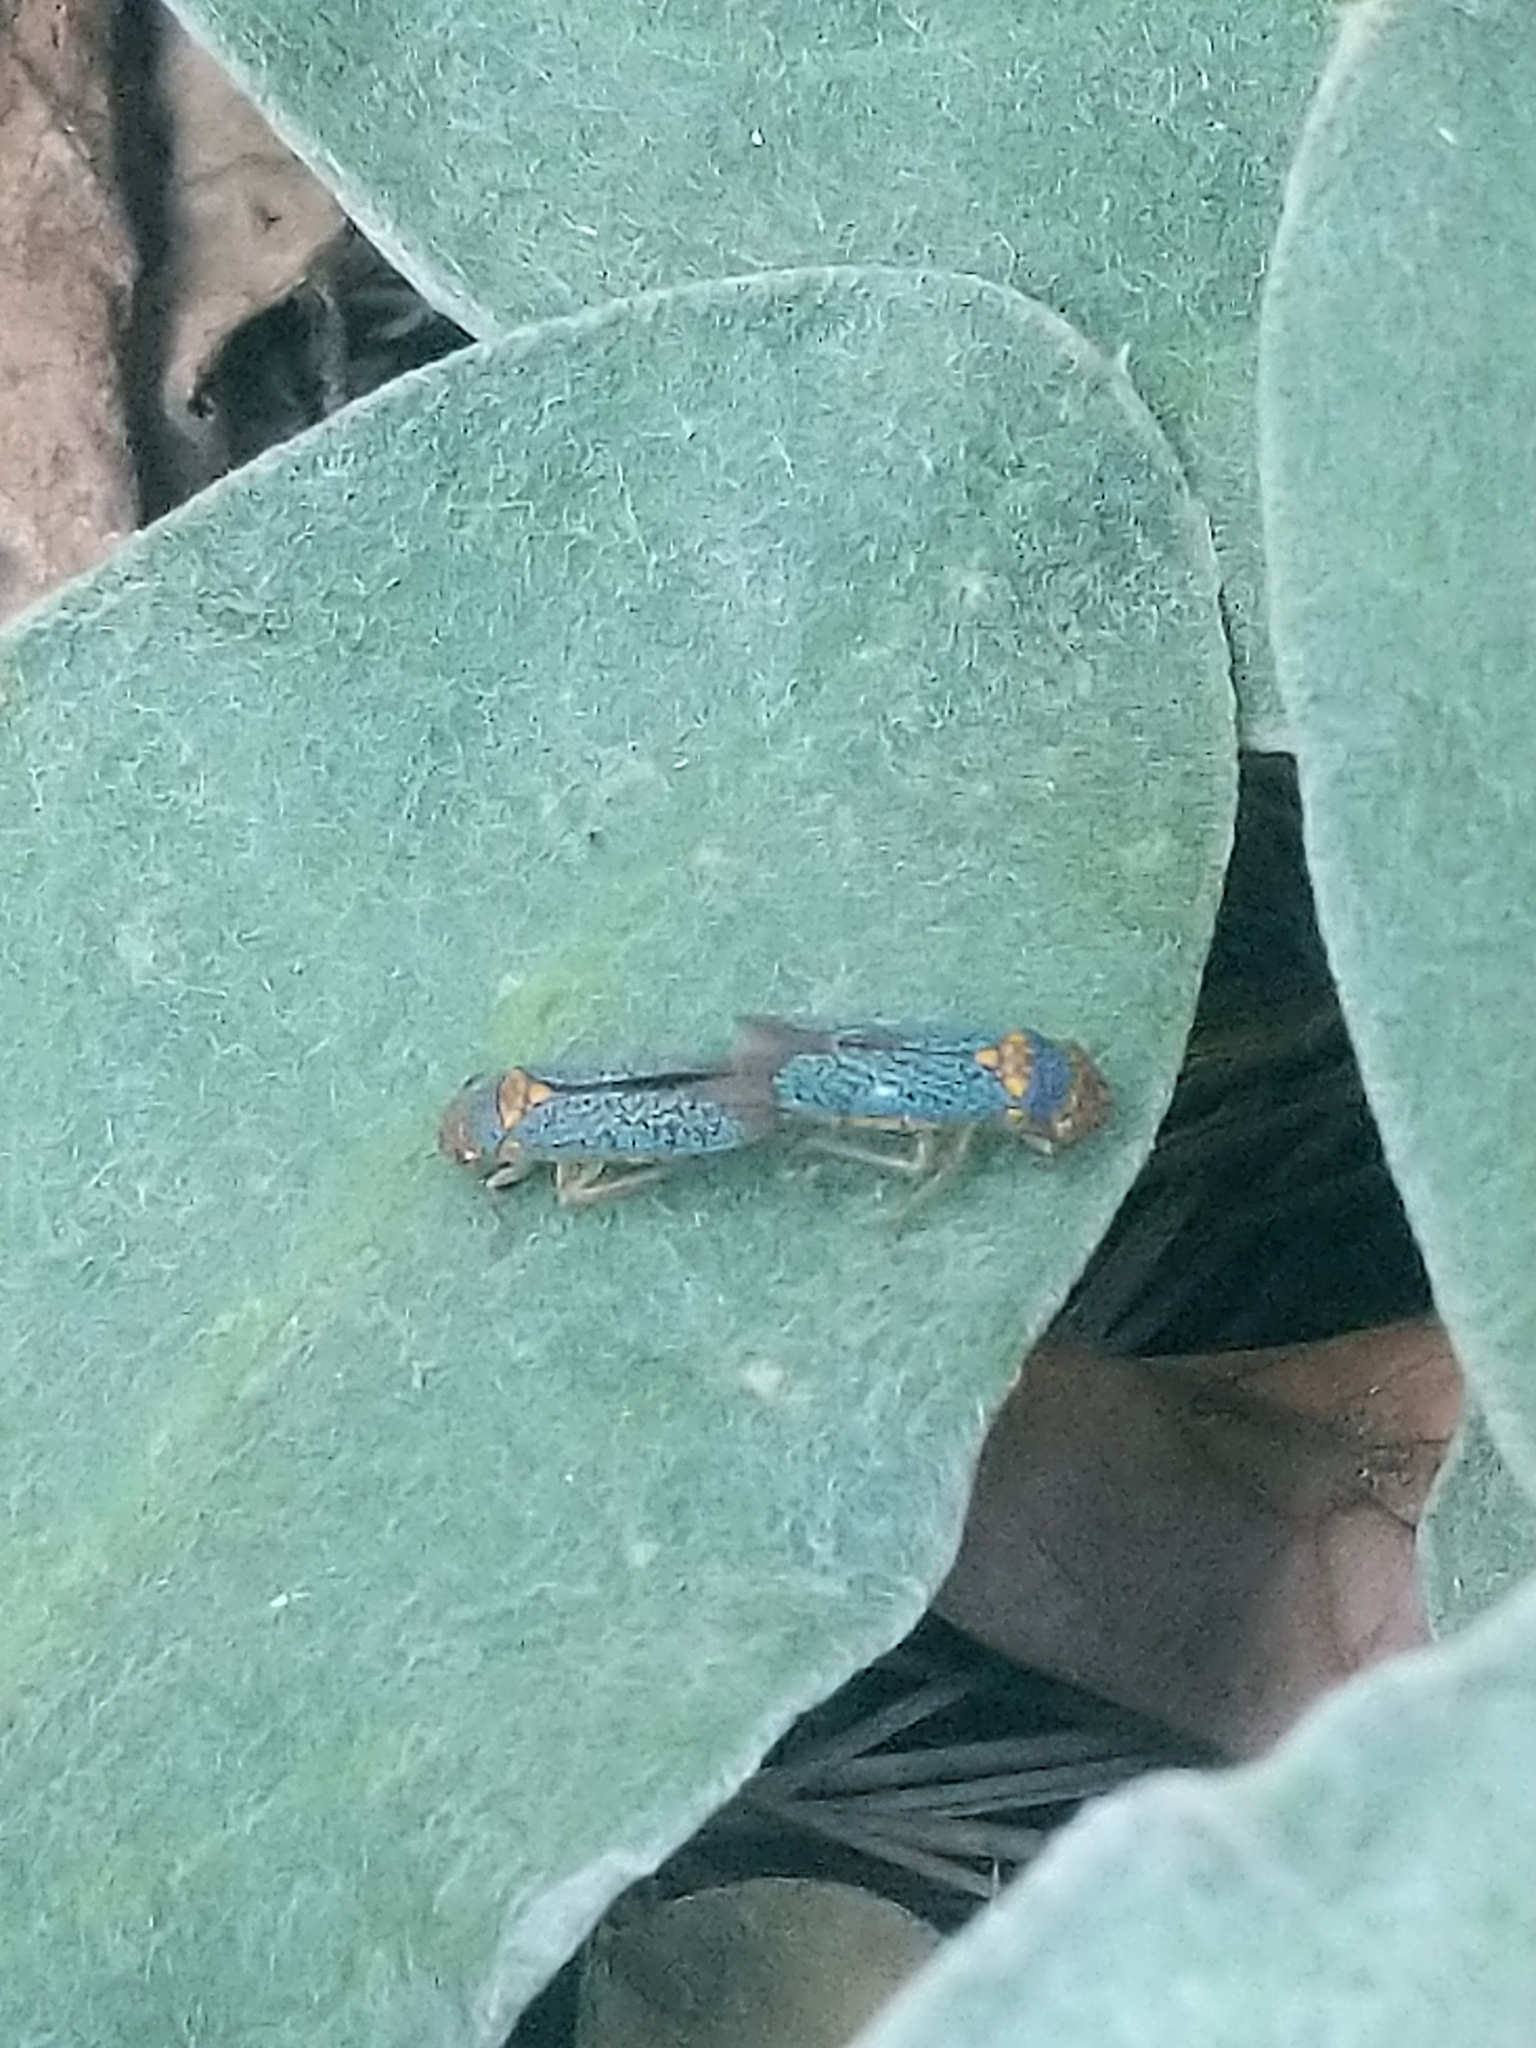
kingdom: Animalia
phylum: Arthropoda
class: Insecta
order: Hemiptera
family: Cicadellidae
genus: Oncometopia
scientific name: Oncometopia orbona
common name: Broad-headed sharpshooter
